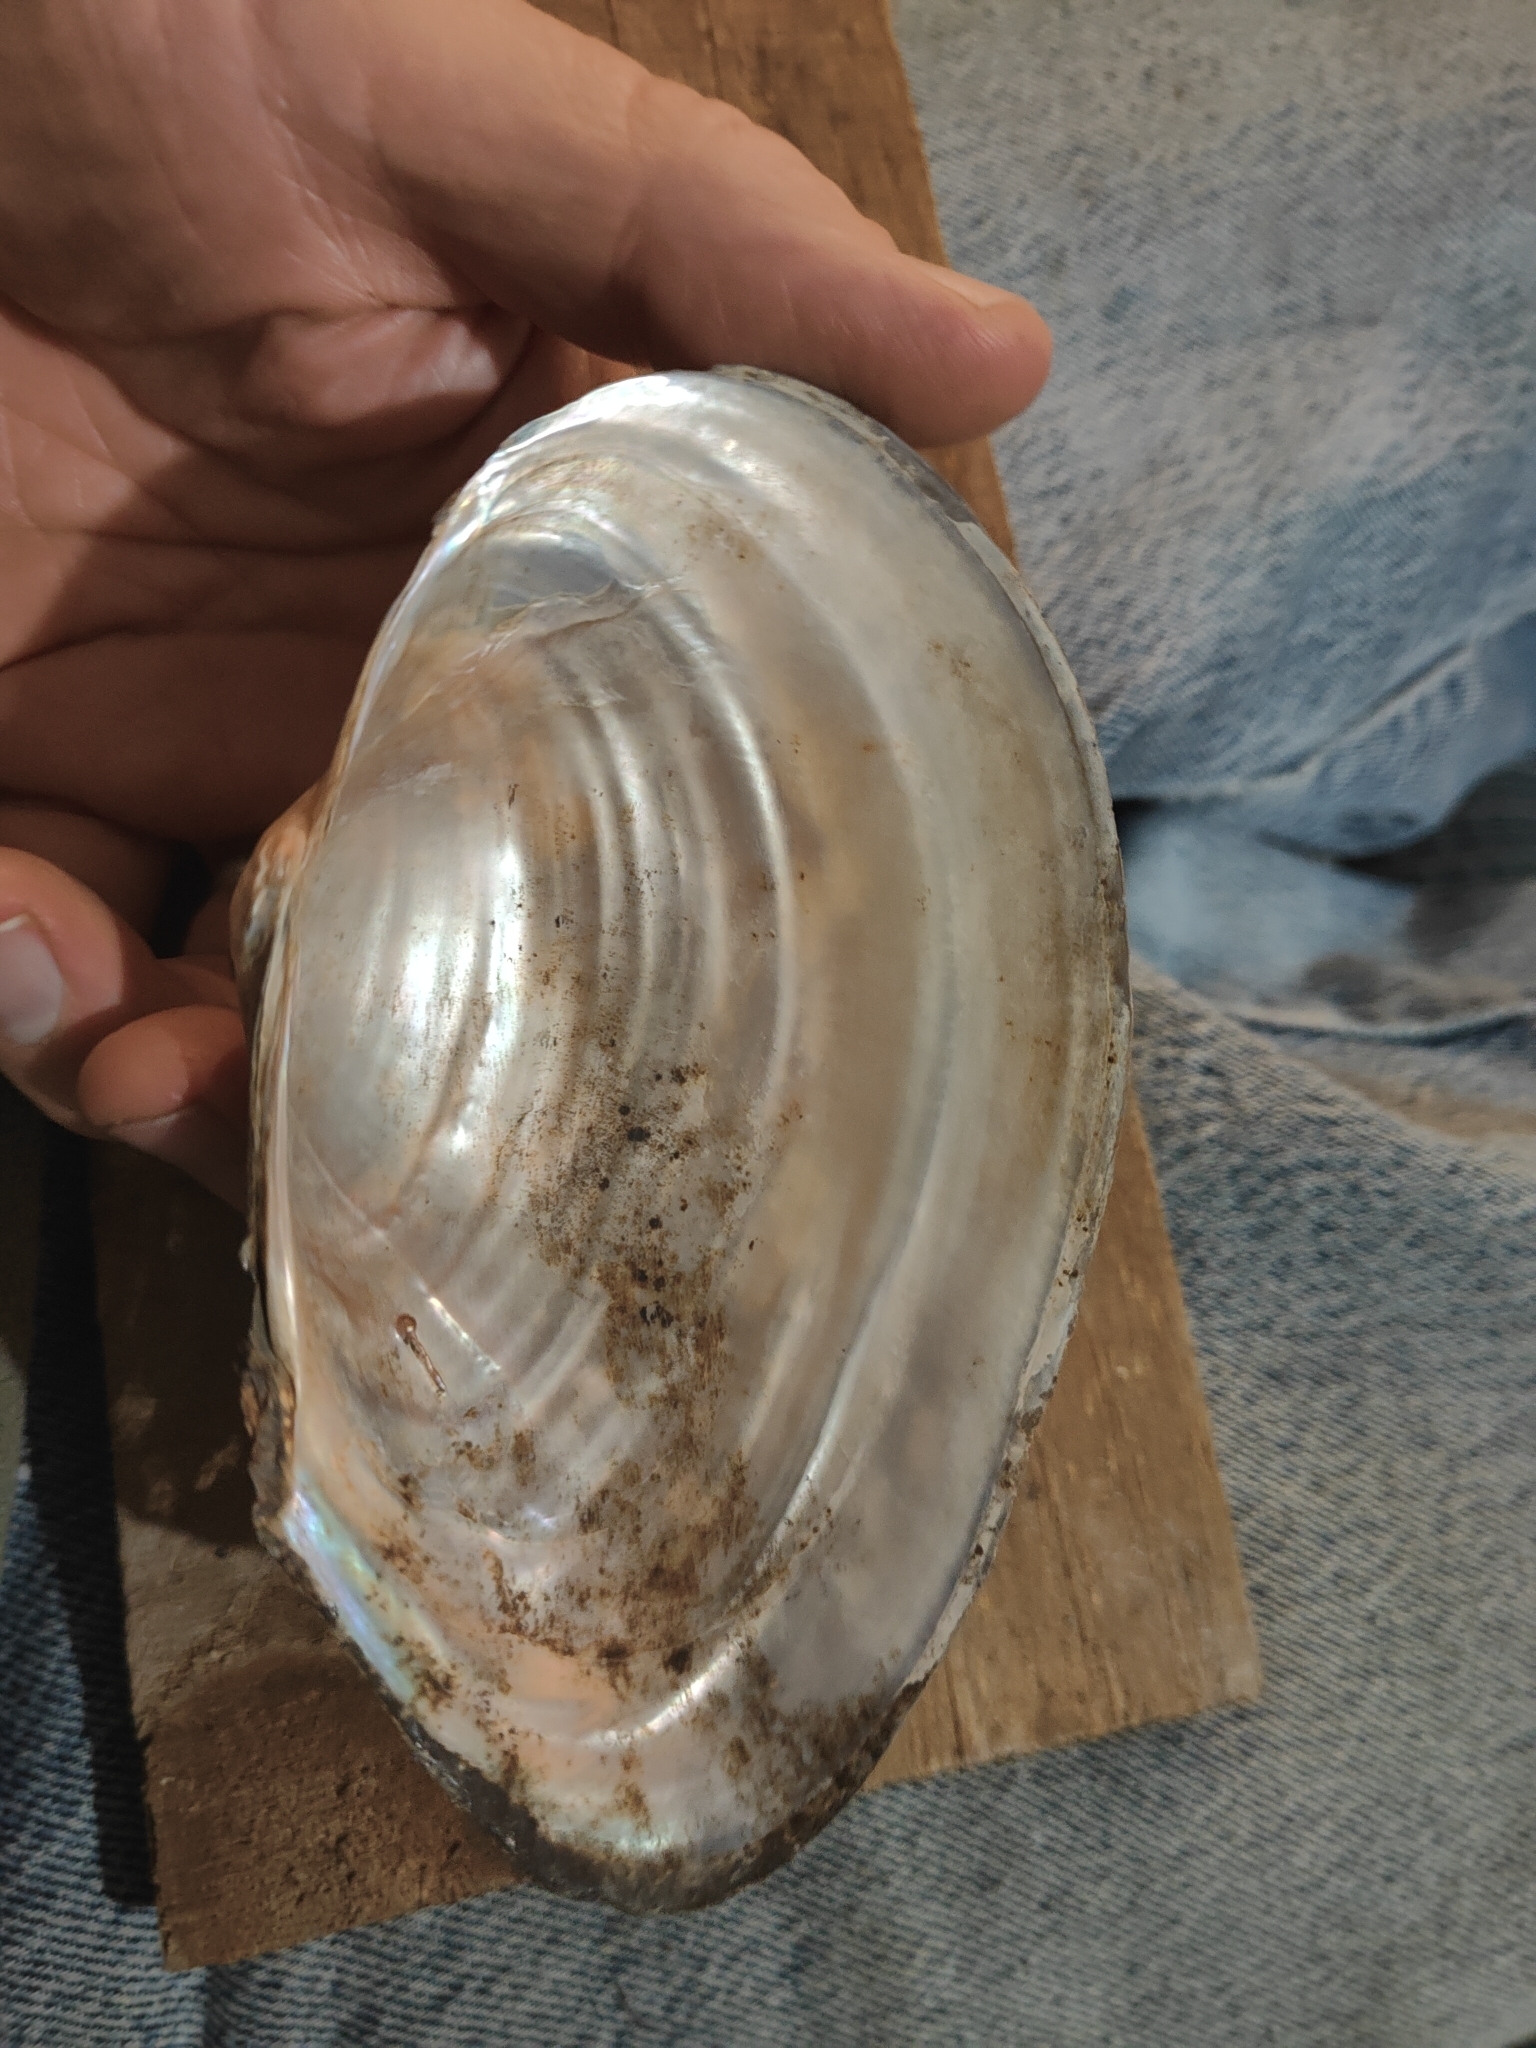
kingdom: Animalia
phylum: Mollusca
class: Bivalvia
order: Unionida
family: Unionidae
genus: Pyganodon
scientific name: Pyganodon grandis
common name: Giant floater
